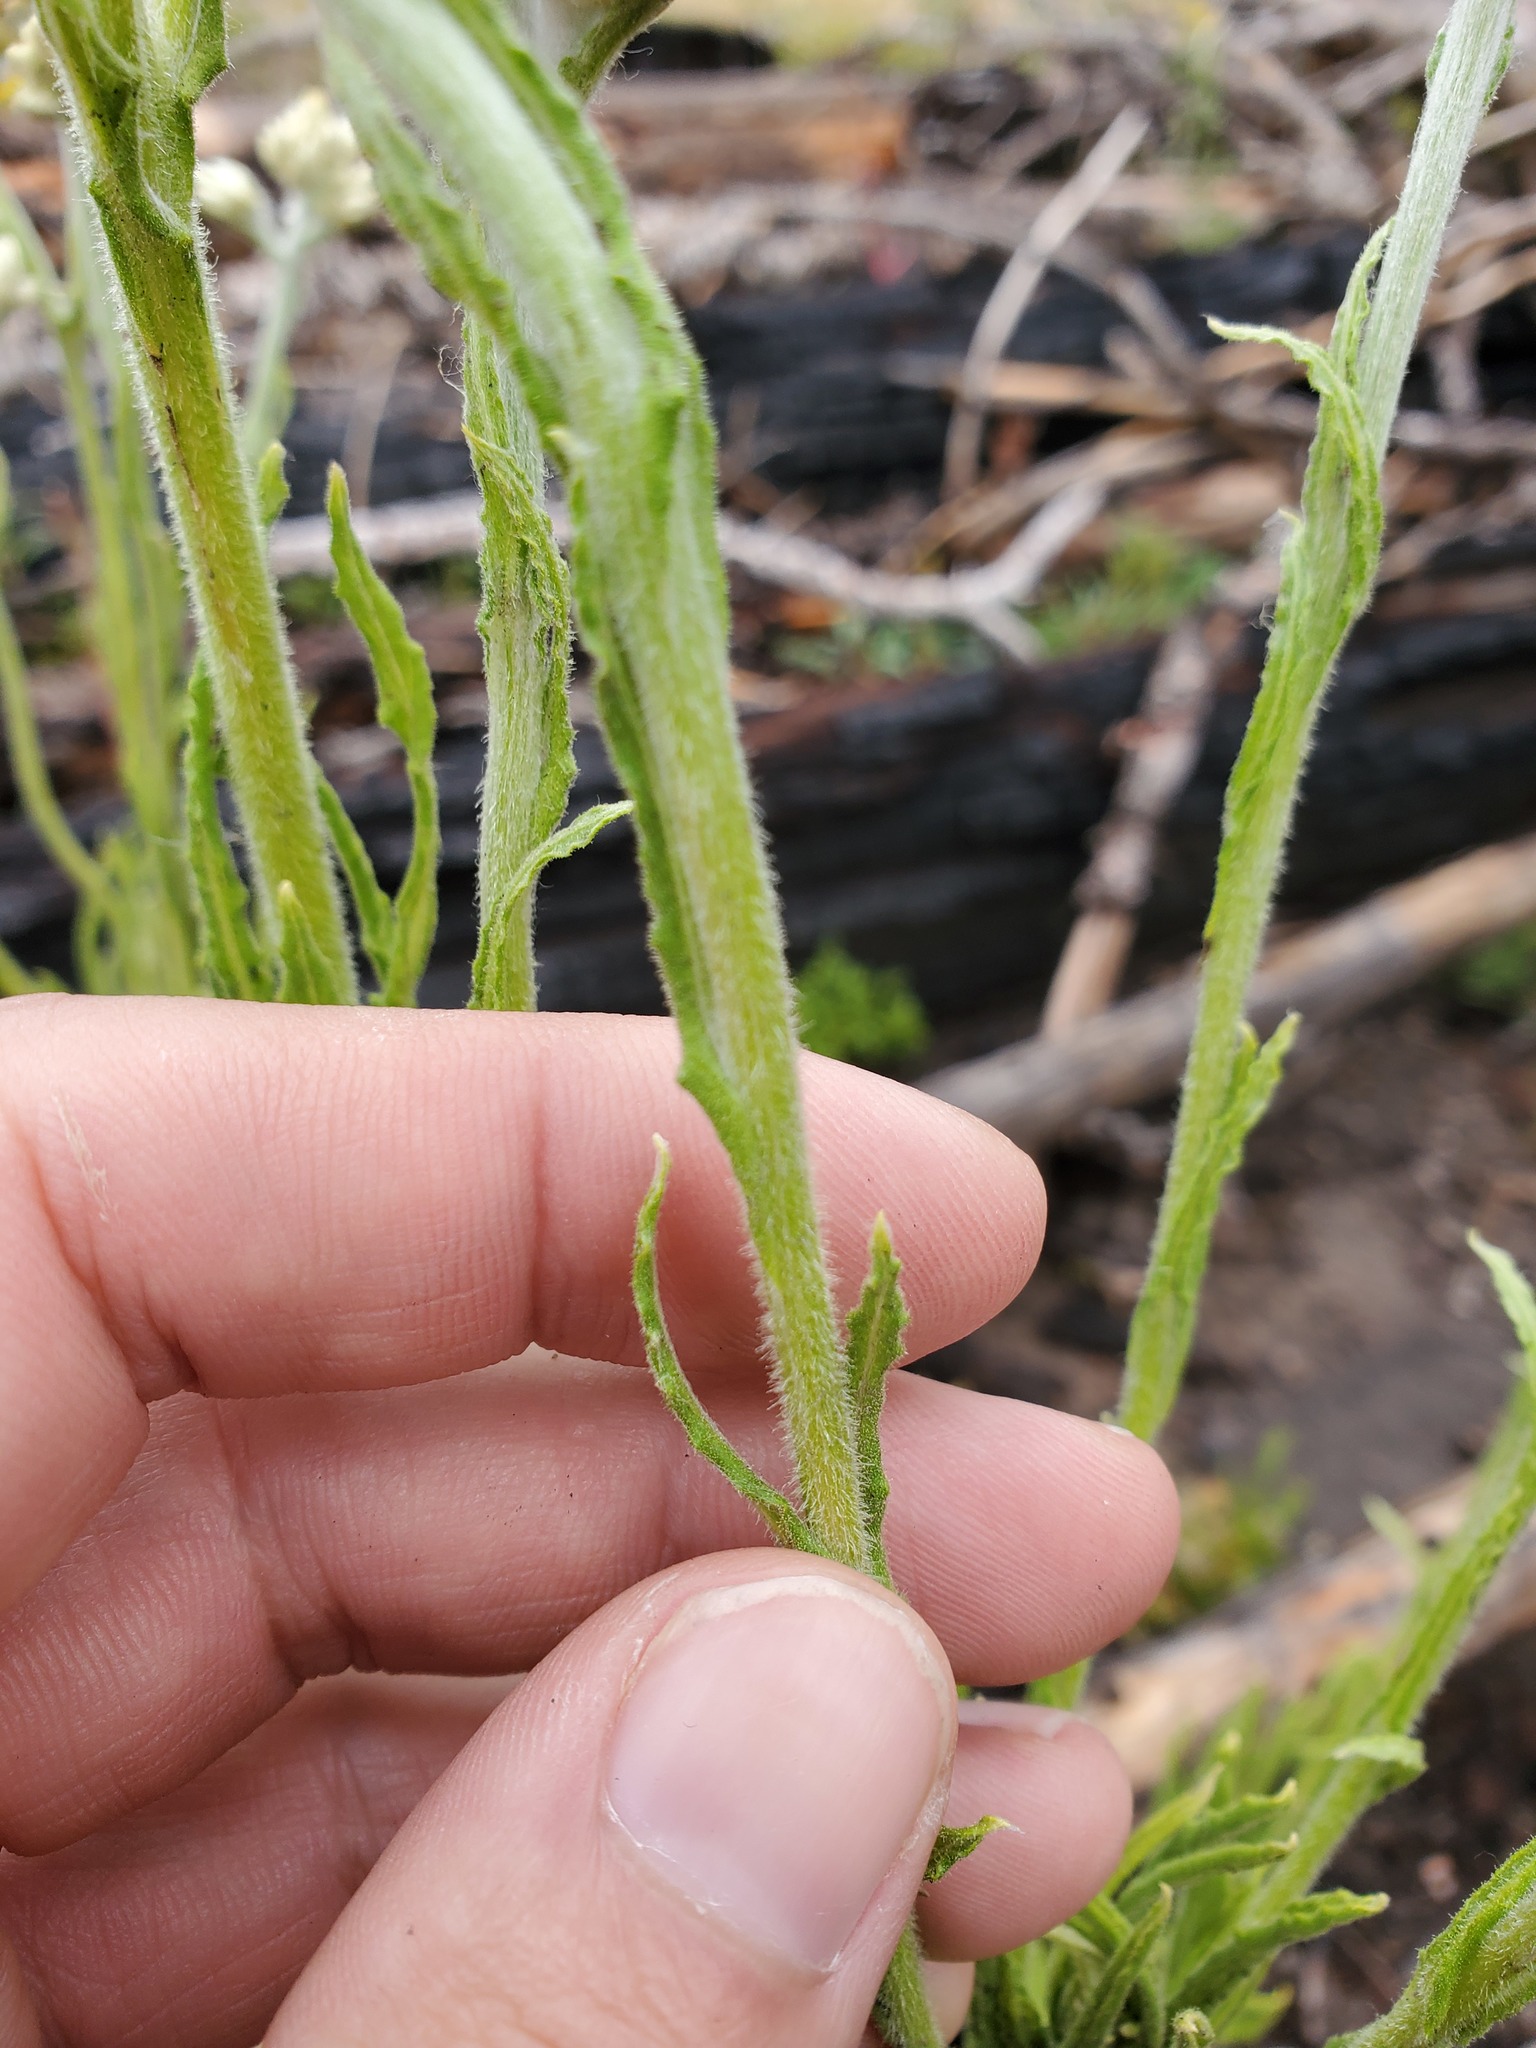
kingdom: Plantae
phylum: Tracheophyta
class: Magnoliopsida
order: Asterales
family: Asteraceae
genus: Pseudognaphalium
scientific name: Pseudognaphalium macounii
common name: Clammy cudweed
